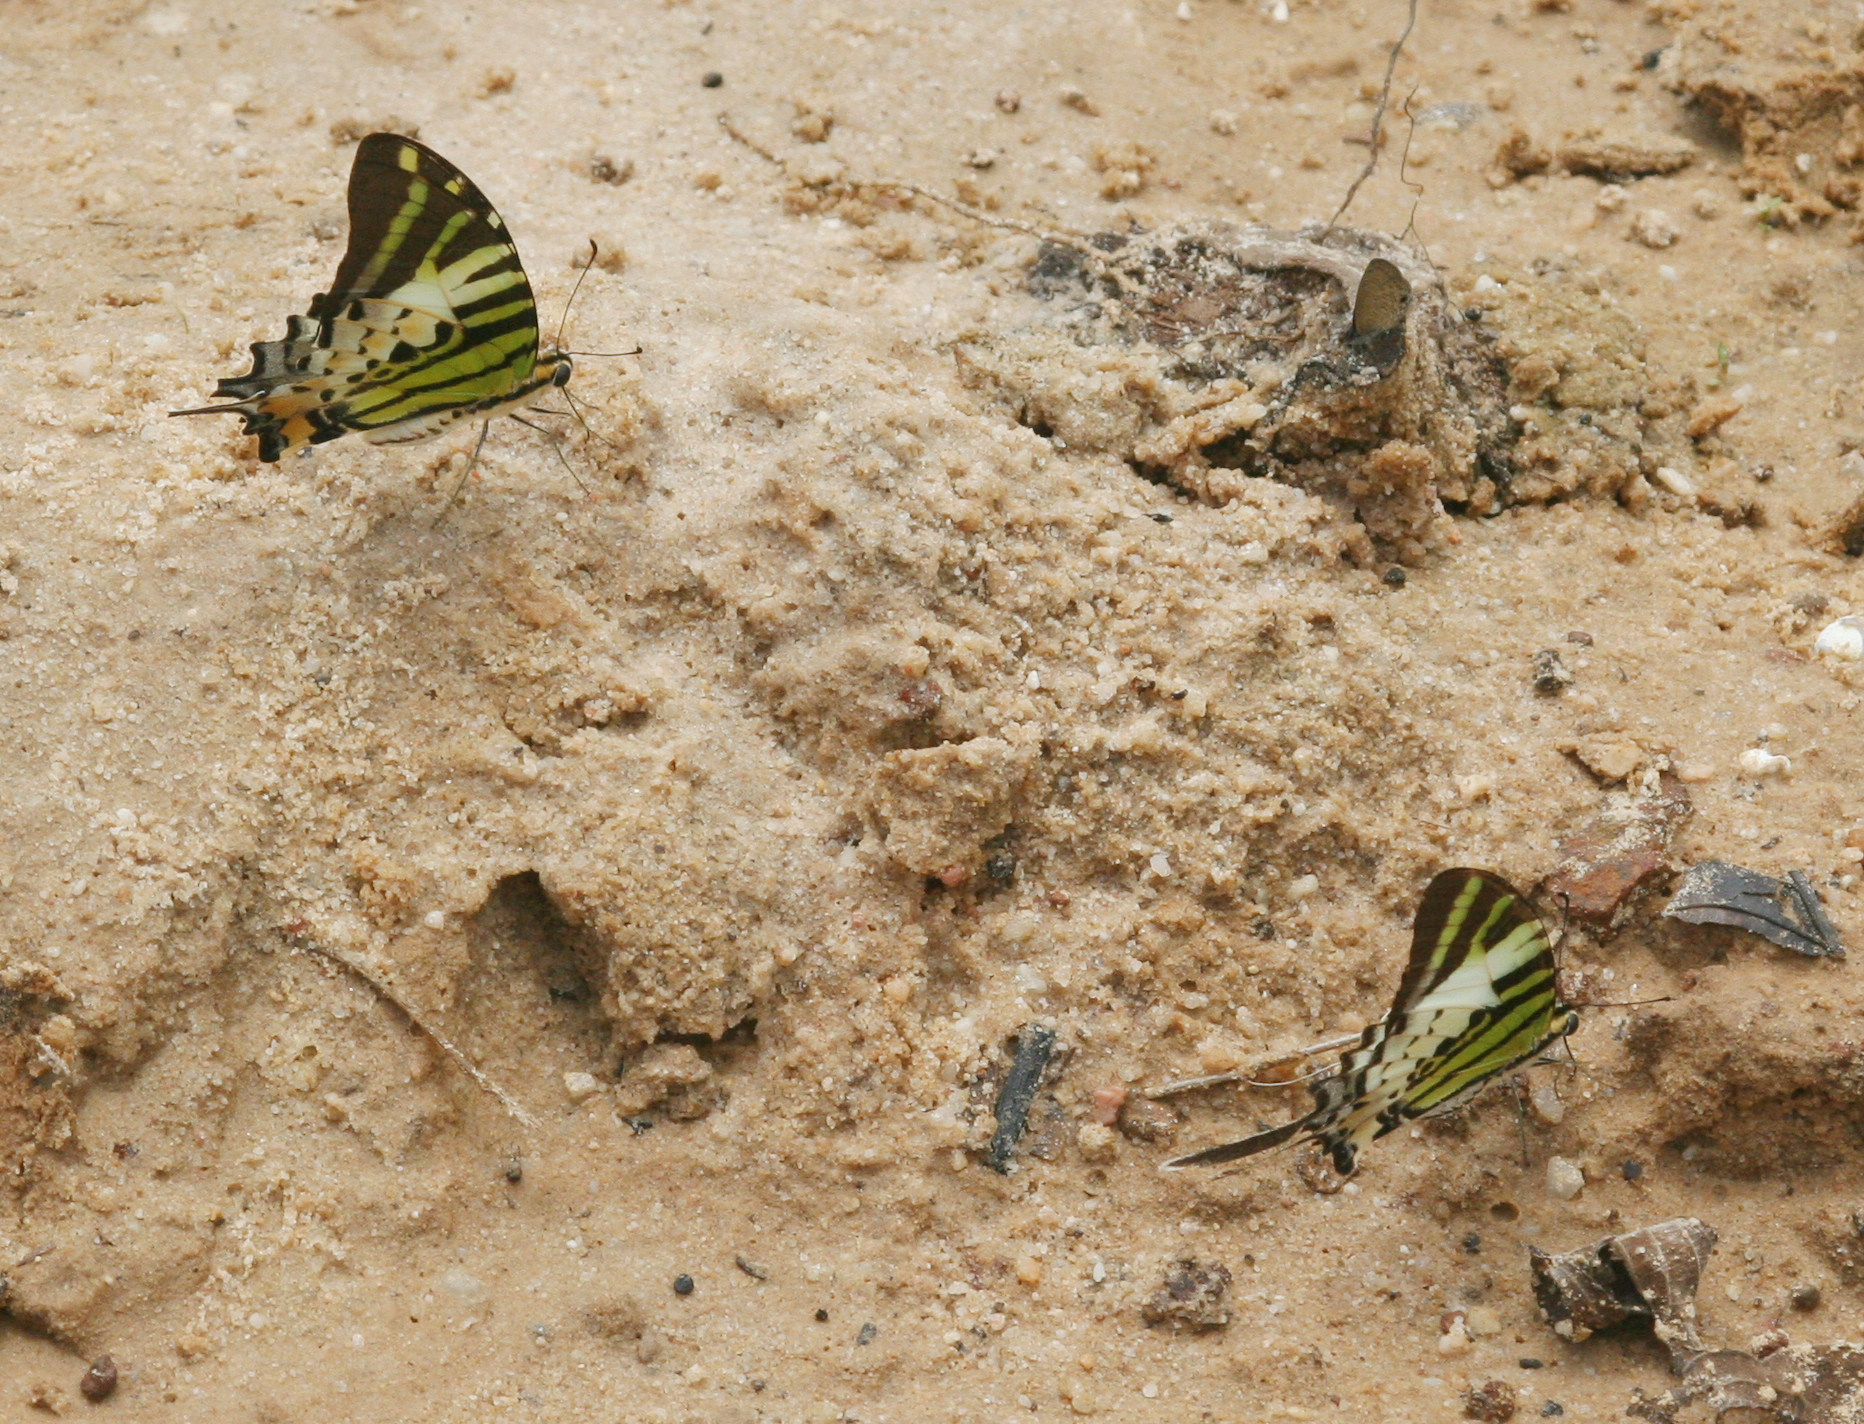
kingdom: Animalia
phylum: Arthropoda
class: Insecta
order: Lepidoptera
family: Papilionidae
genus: Graphium
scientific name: Graphium antiphates
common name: Fivebar swordtail
